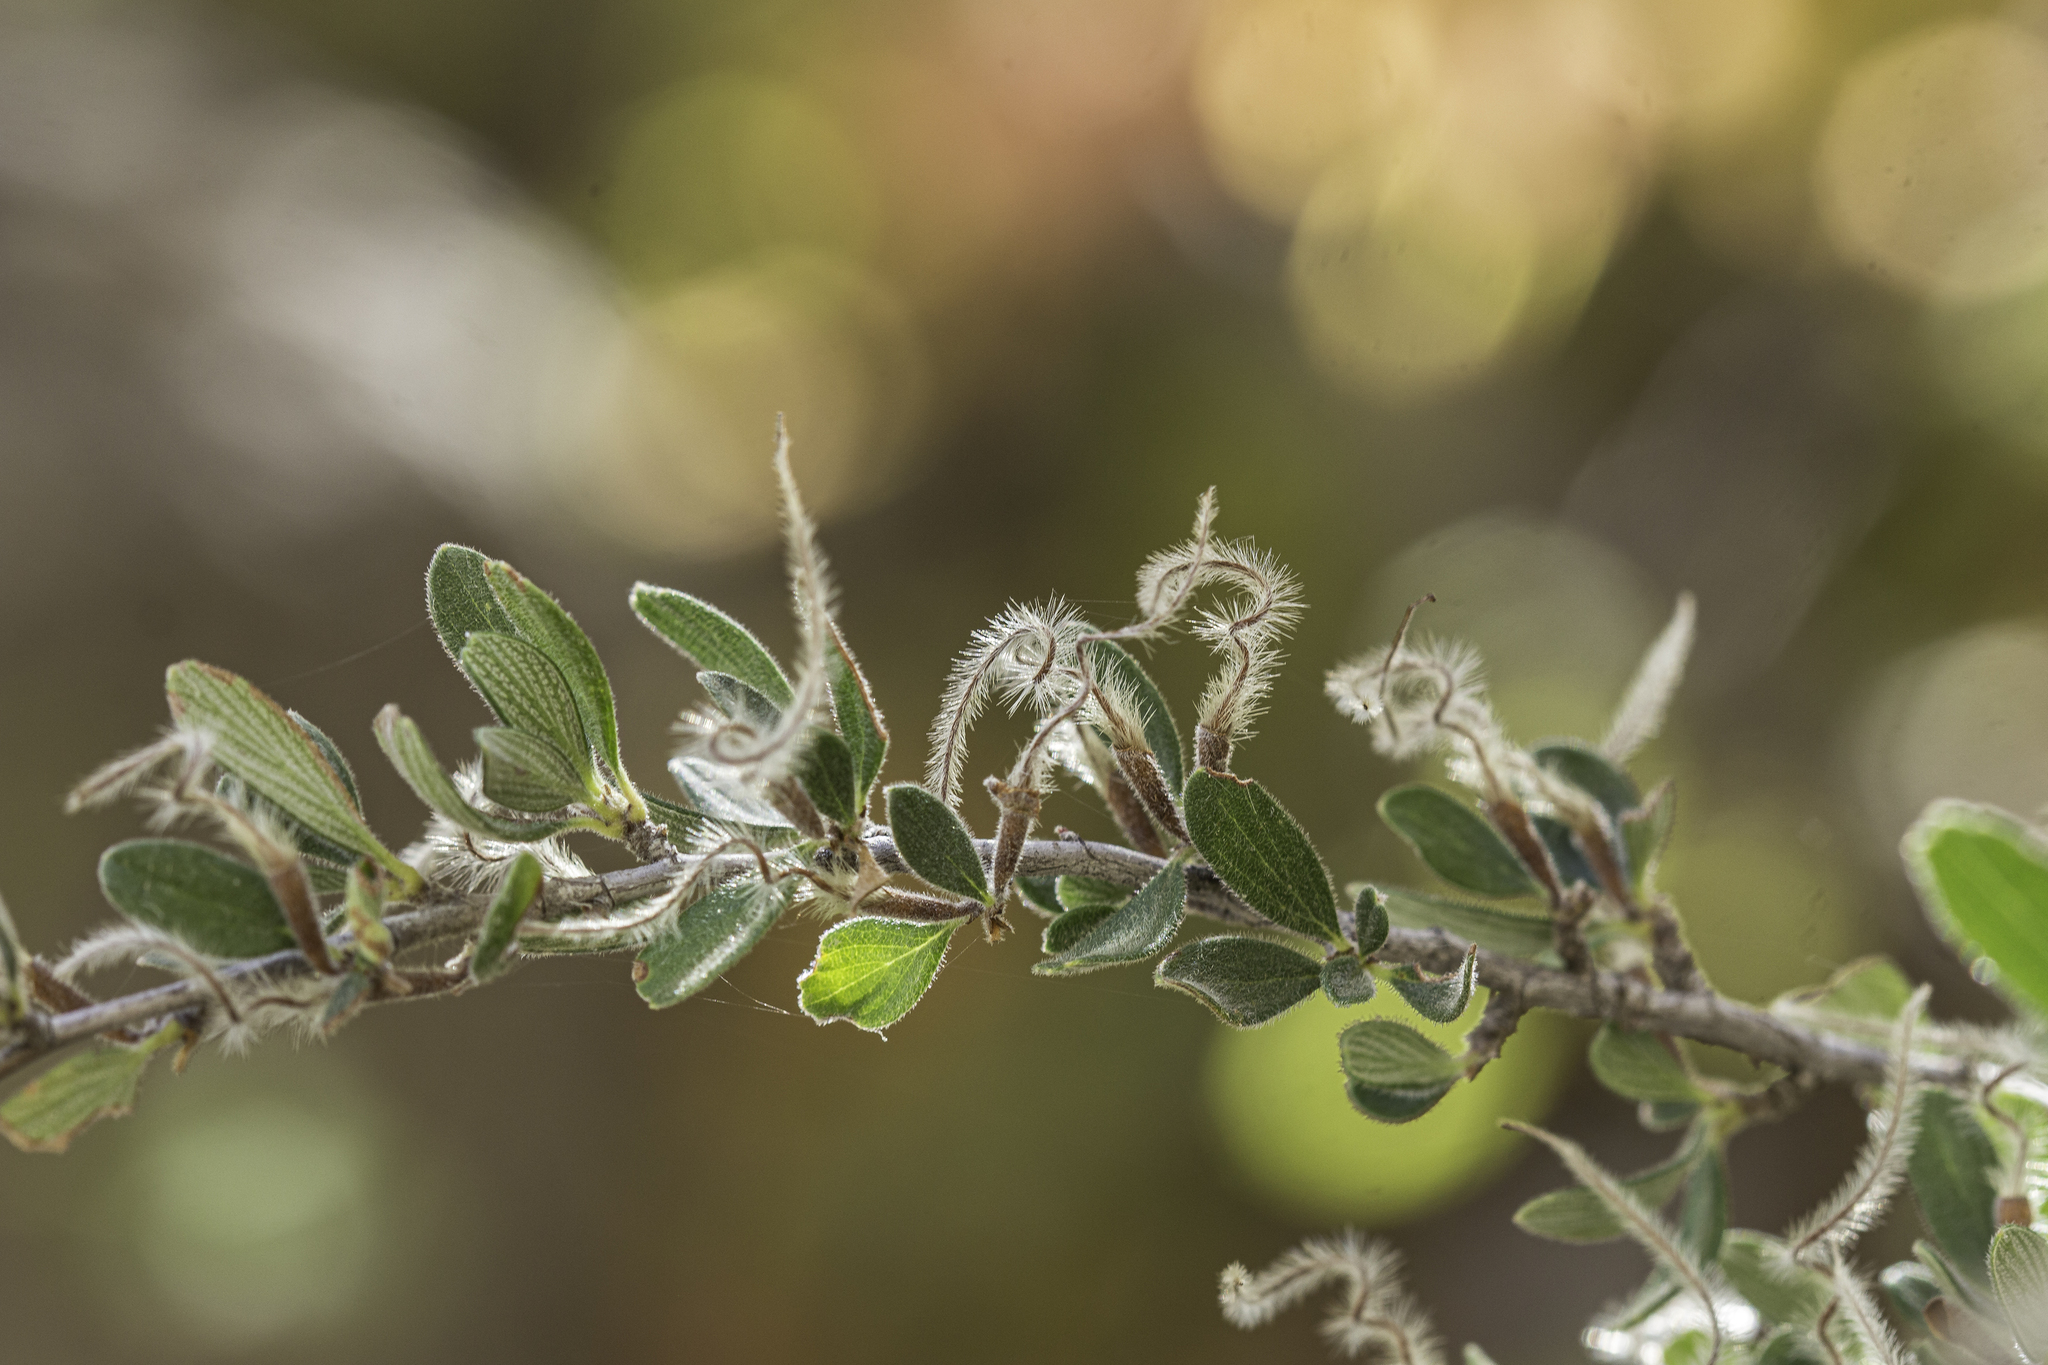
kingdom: Plantae
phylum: Tracheophyta
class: Magnoliopsida
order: Rosales
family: Rosaceae
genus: Cercocarpus
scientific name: Cercocarpus breviflorus
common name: Wright's mountain-mahogany
